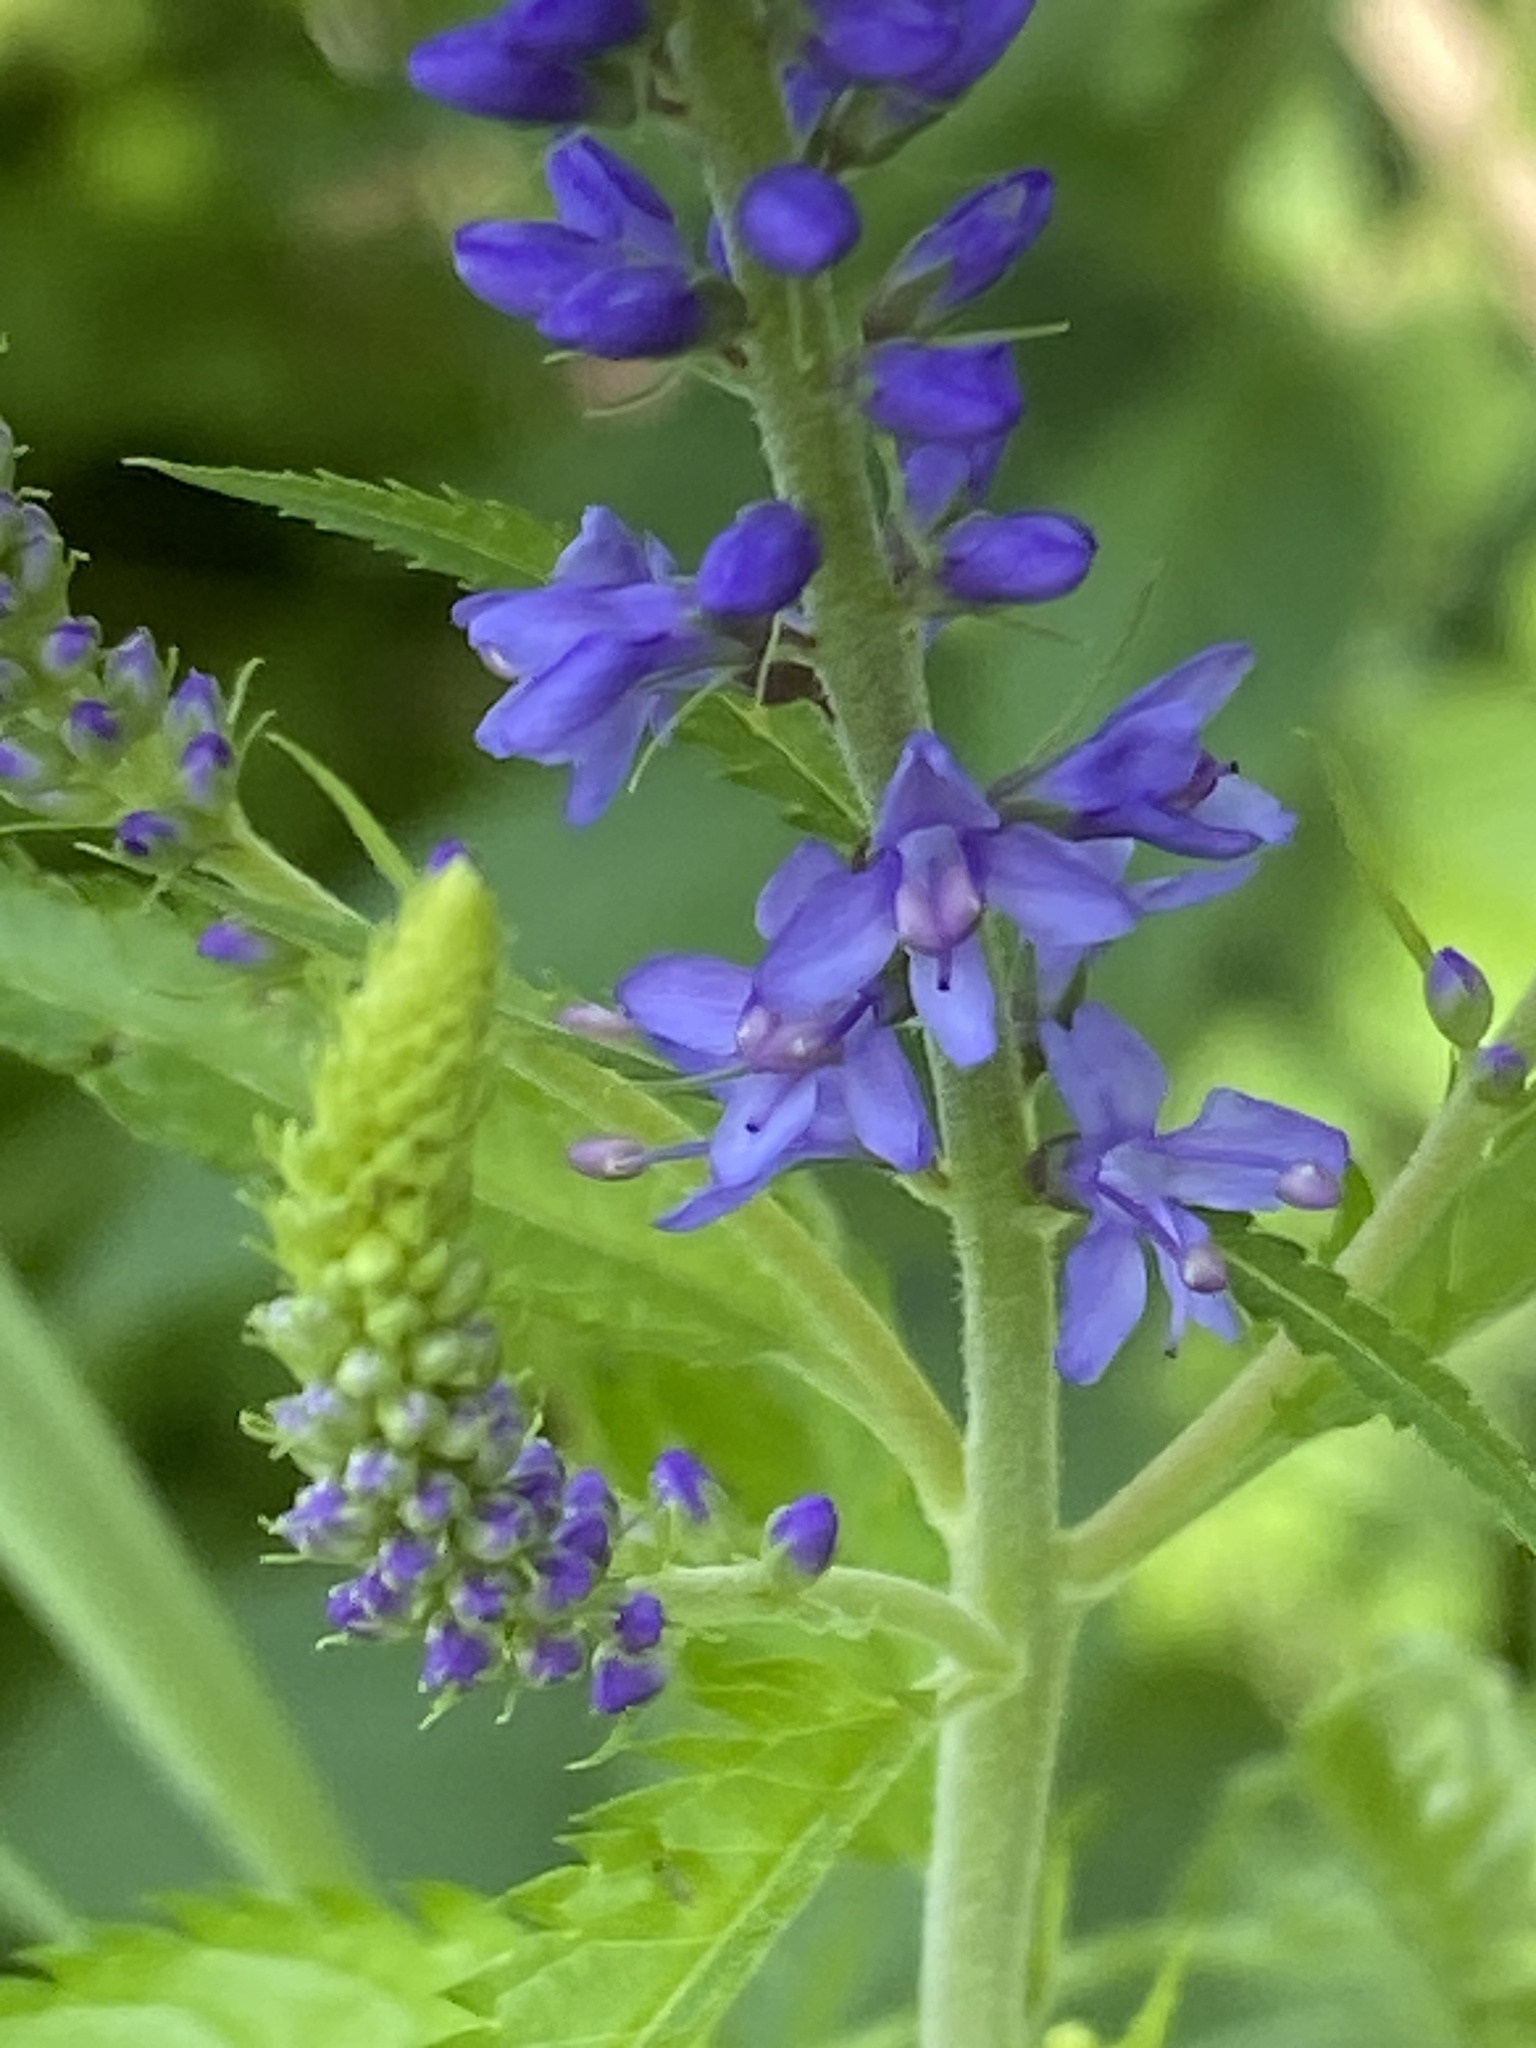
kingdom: Plantae
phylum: Tracheophyta
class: Magnoliopsida
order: Lamiales
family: Plantaginaceae
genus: Veronica
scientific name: Veronica longifolia
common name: Garden speedwell
